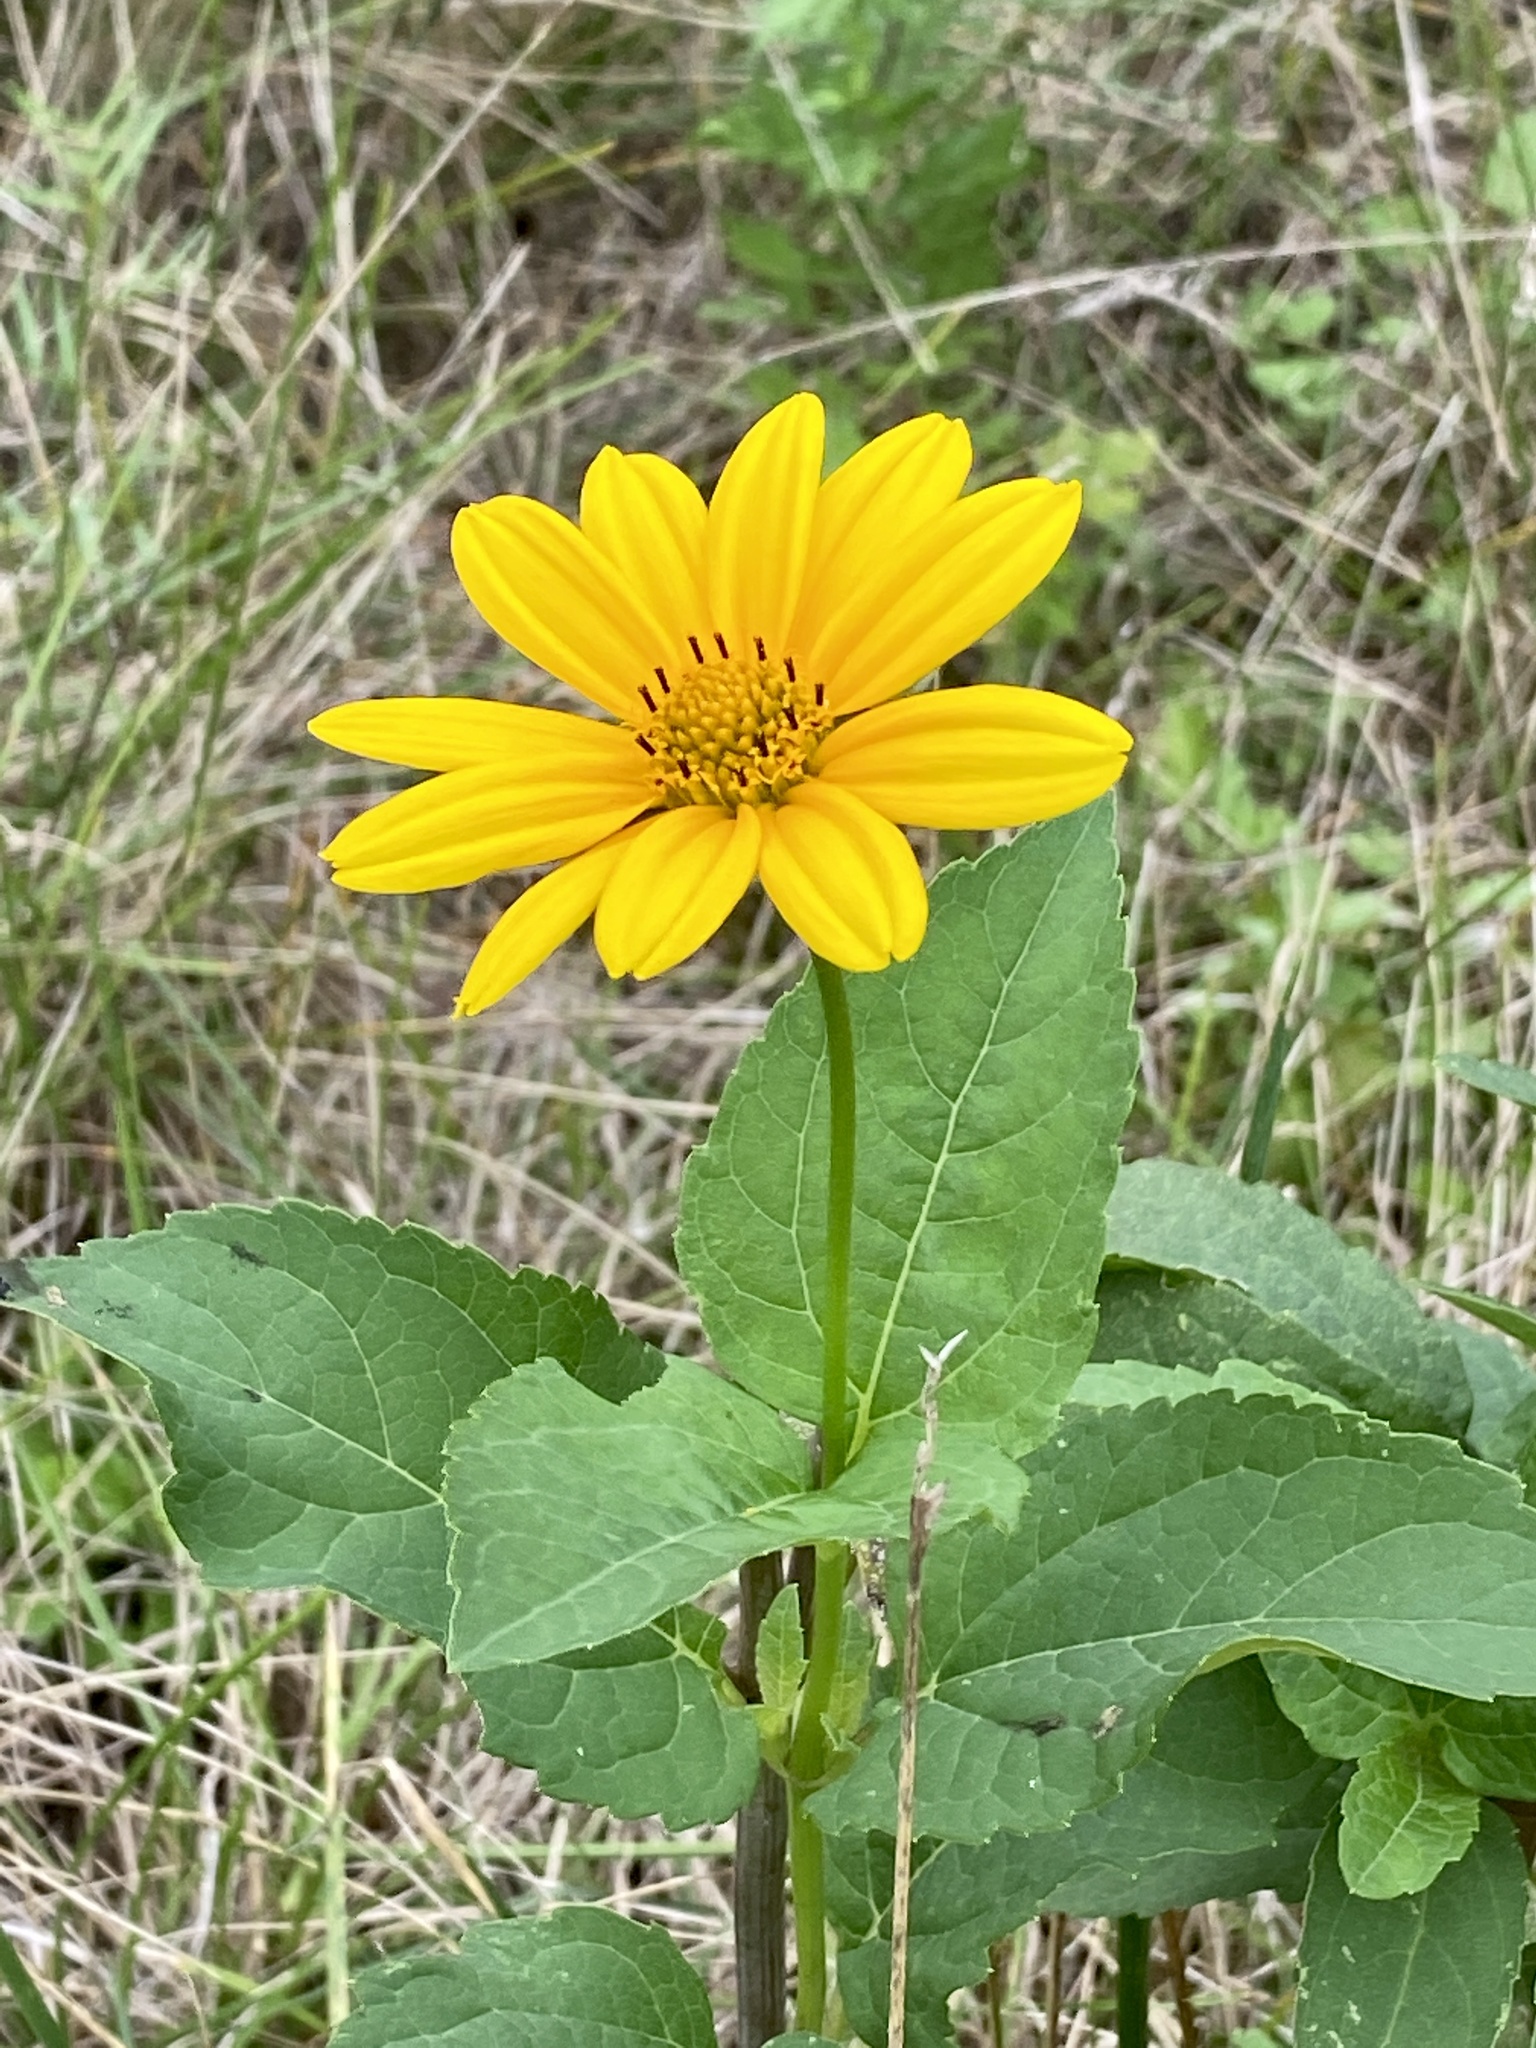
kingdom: Plantae
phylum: Tracheophyta
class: Magnoliopsida
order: Asterales
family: Asteraceae
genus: Heliopsis
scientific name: Heliopsis helianthoides
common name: False sunflower
